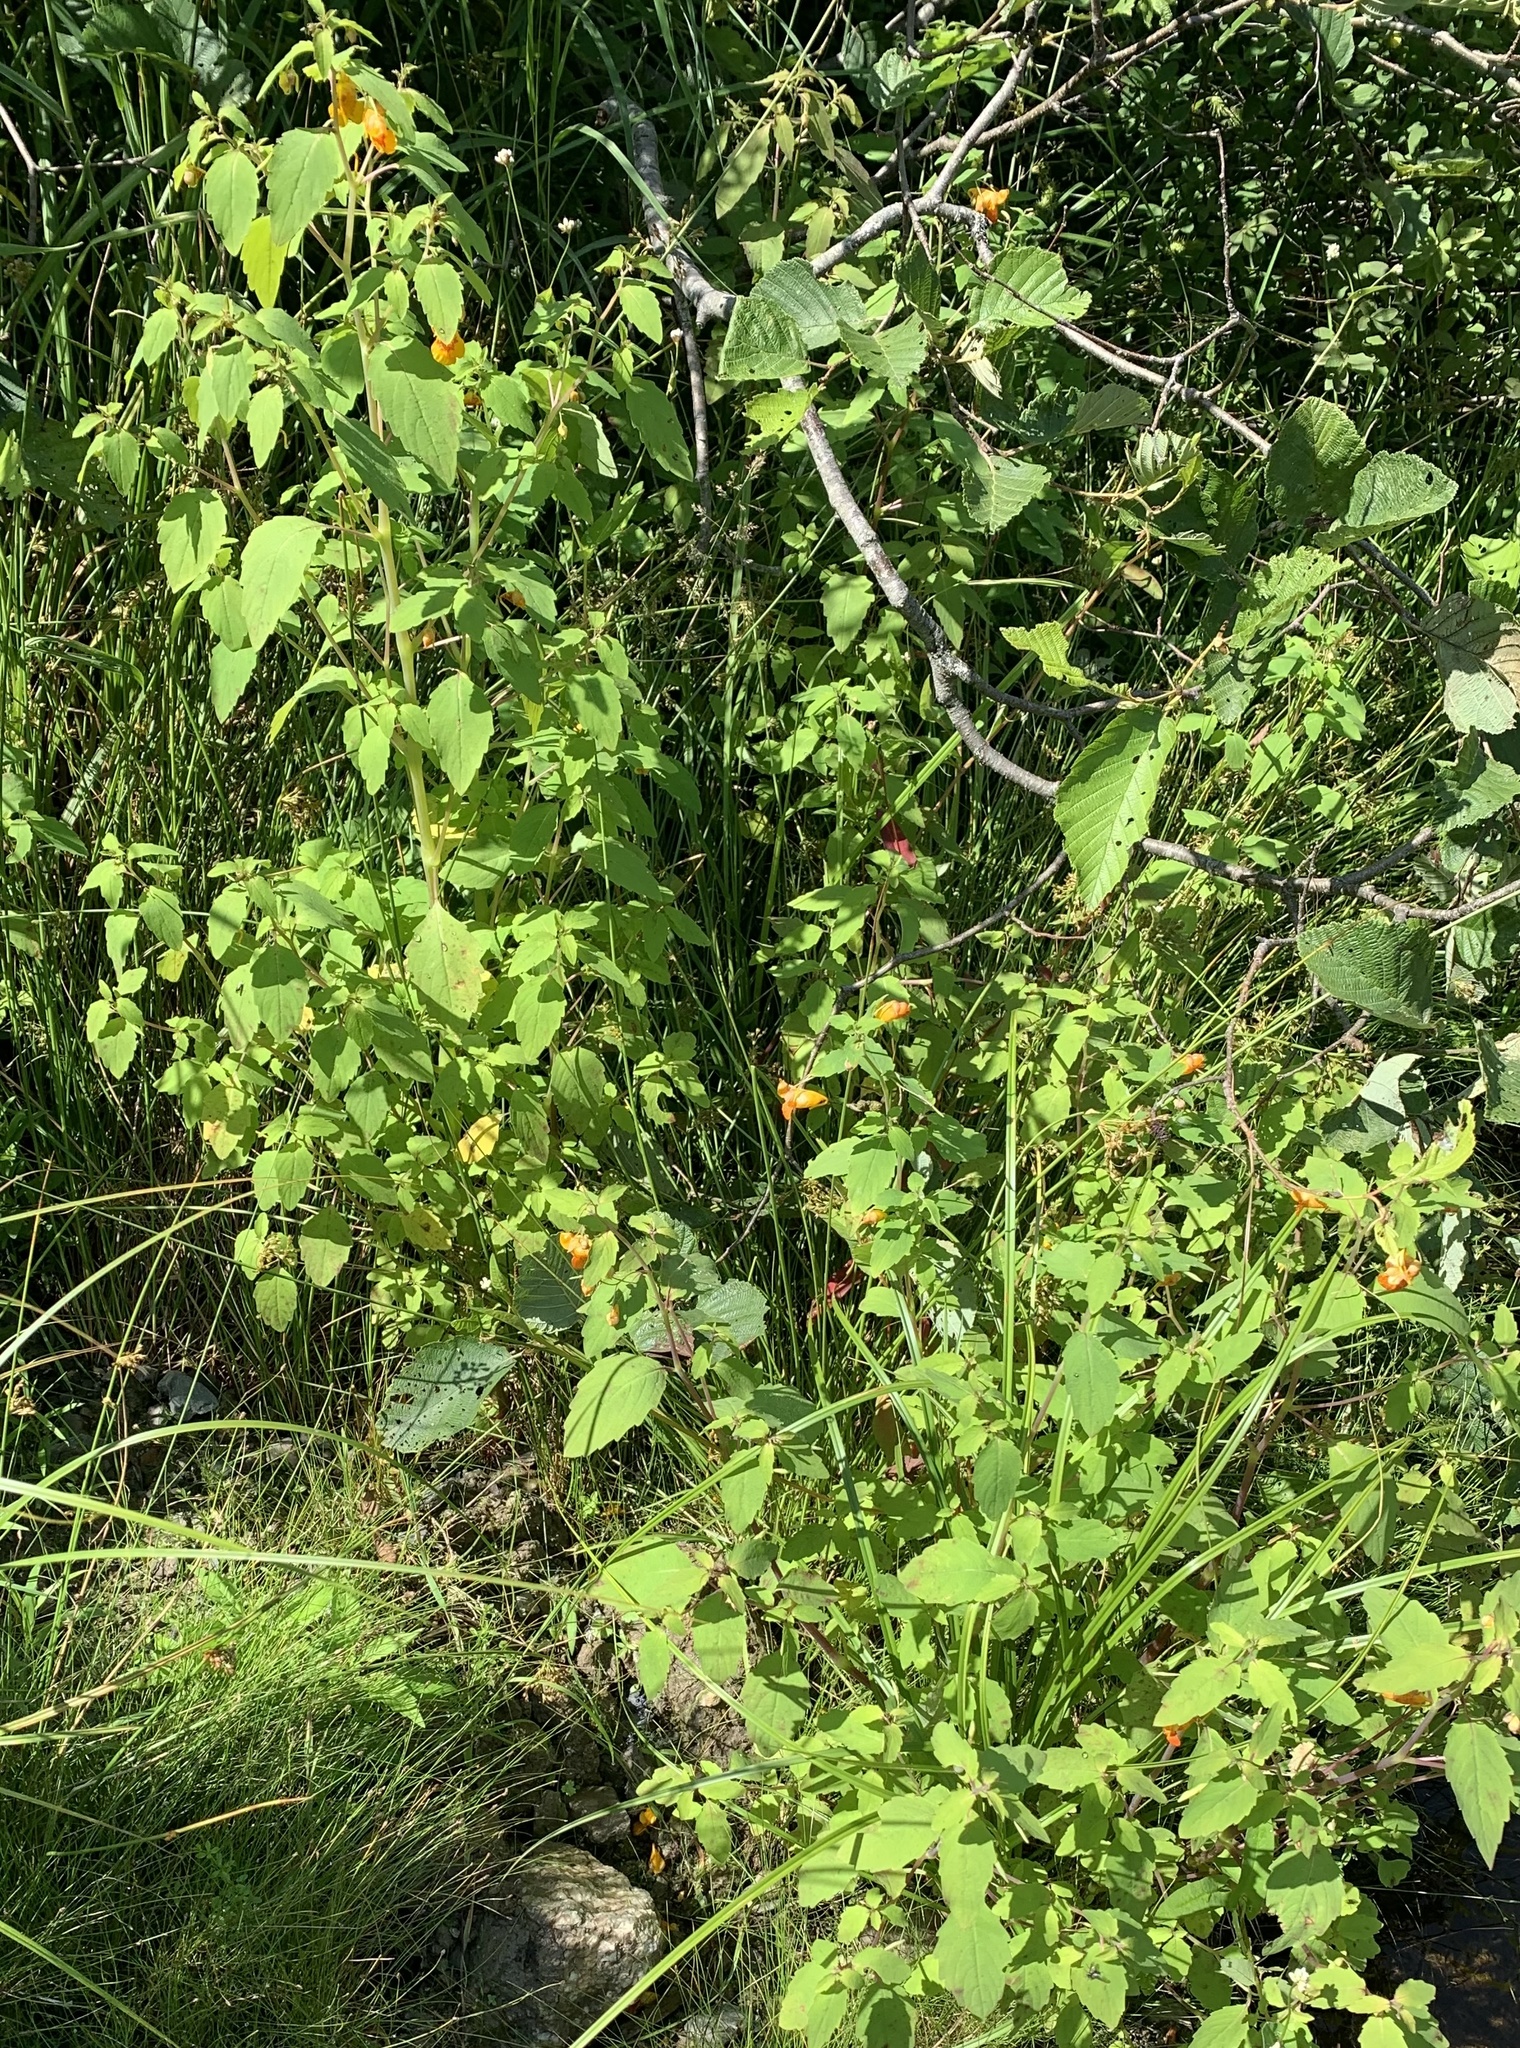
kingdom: Plantae
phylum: Tracheophyta
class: Magnoliopsida
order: Ericales
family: Balsaminaceae
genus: Impatiens
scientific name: Impatiens capensis
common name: Orange balsam
